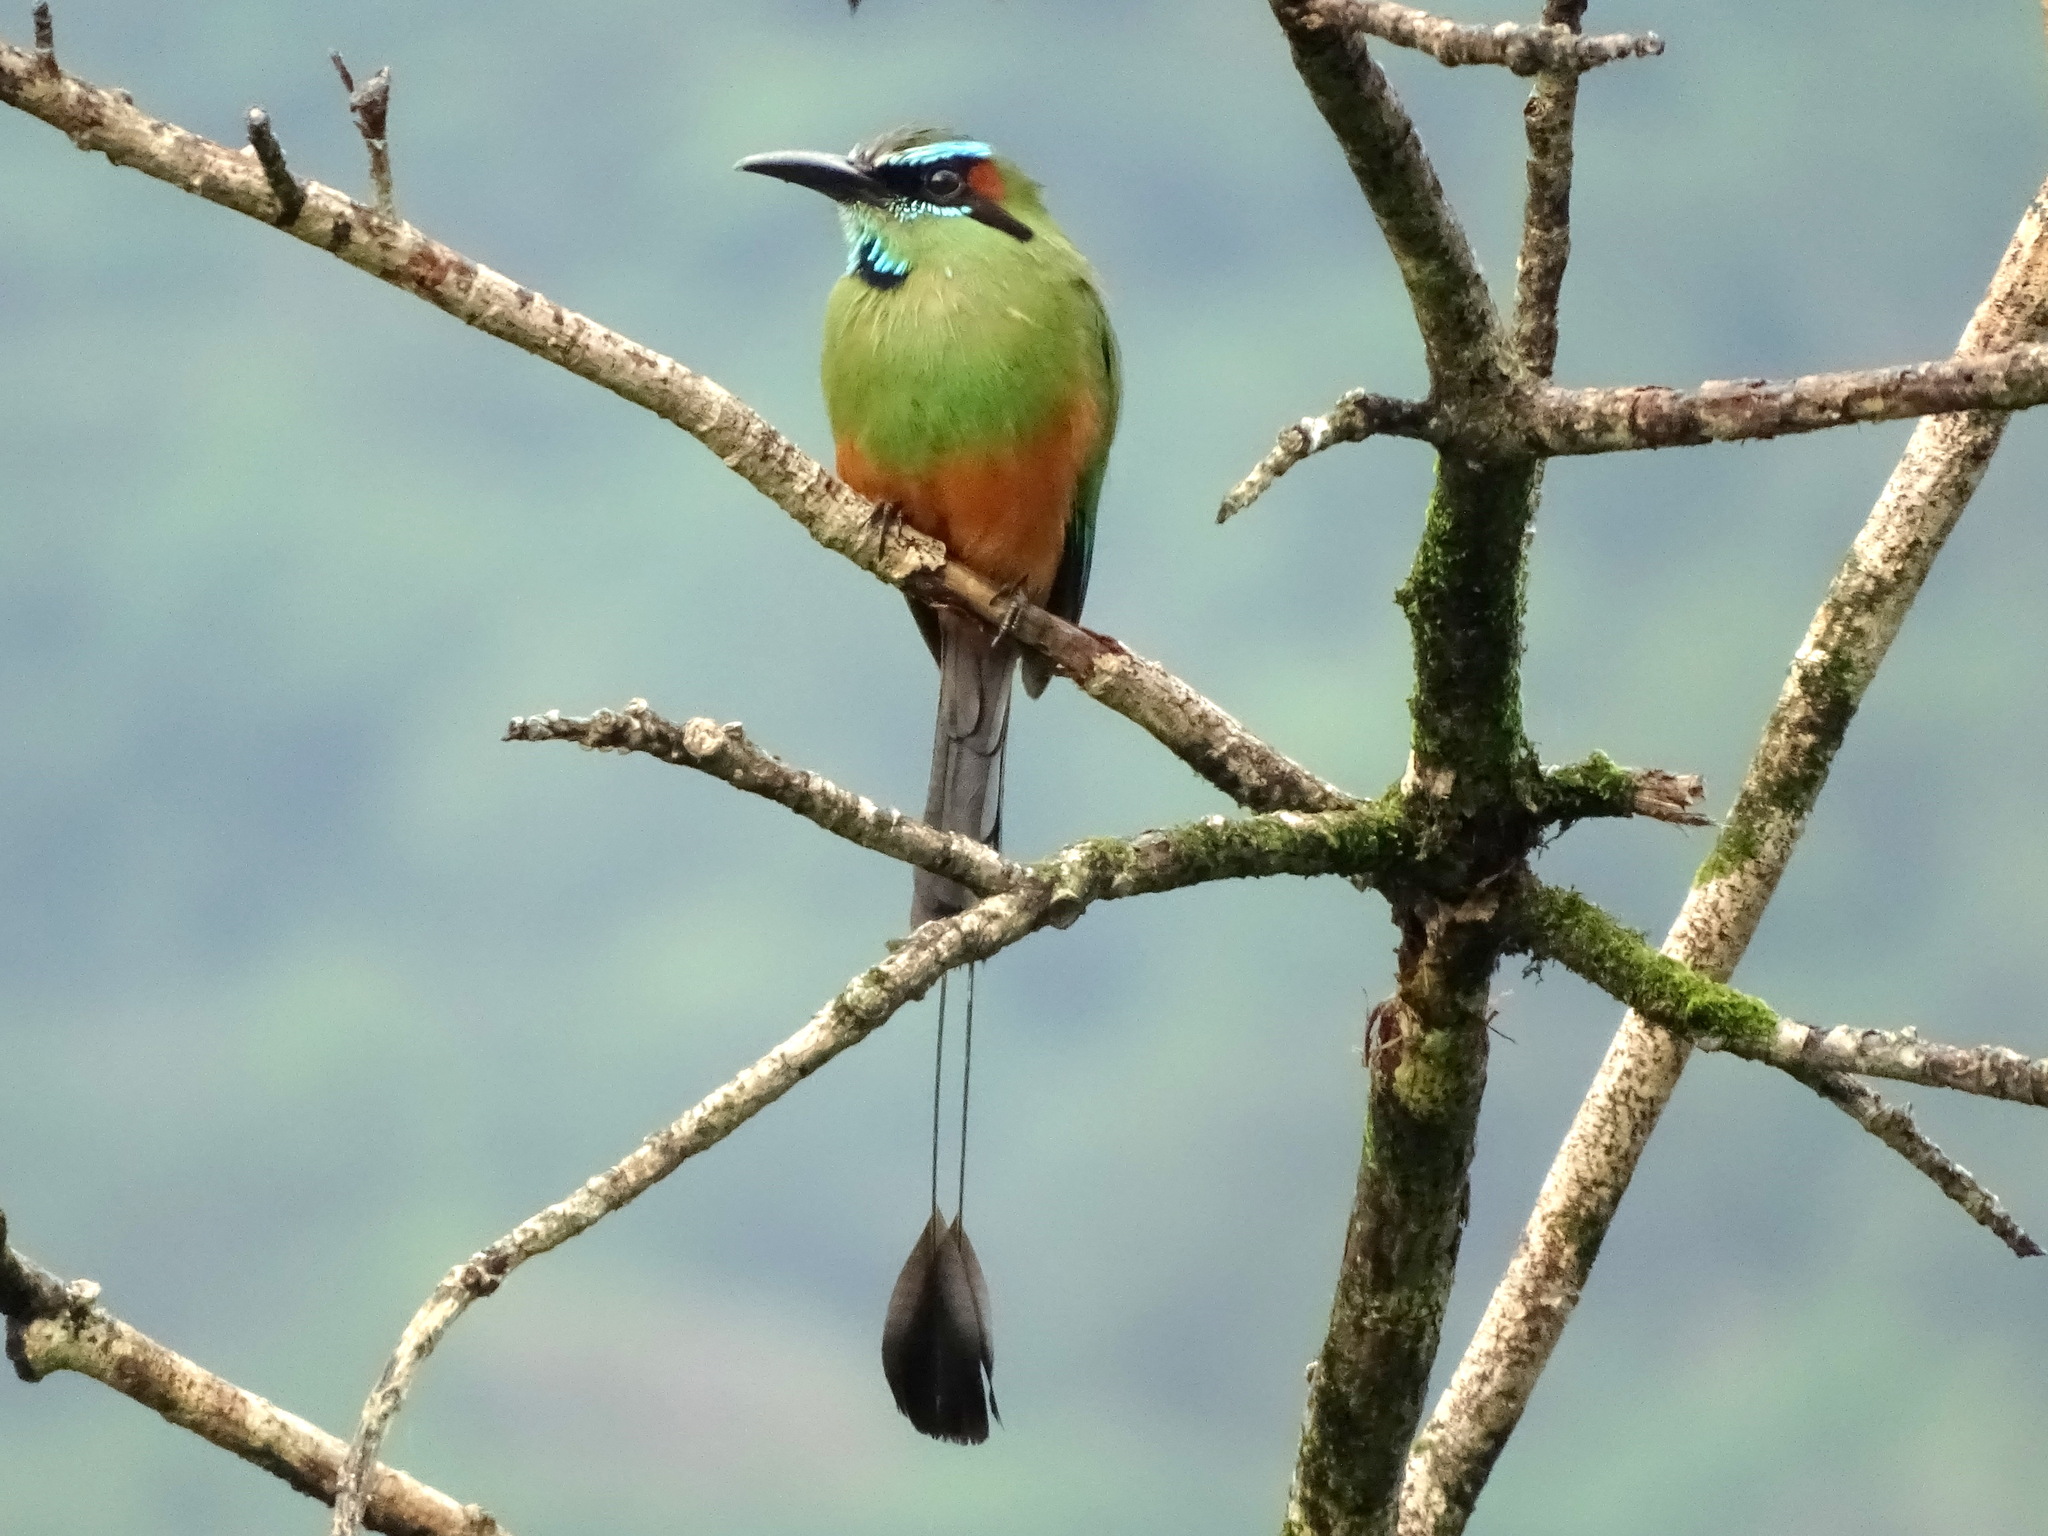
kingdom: Animalia
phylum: Chordata
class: Aves
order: Coraciiformes
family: Momotidae
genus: Eumomota
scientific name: Eumomota superciliosa
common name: Turquoise-browed motmot
